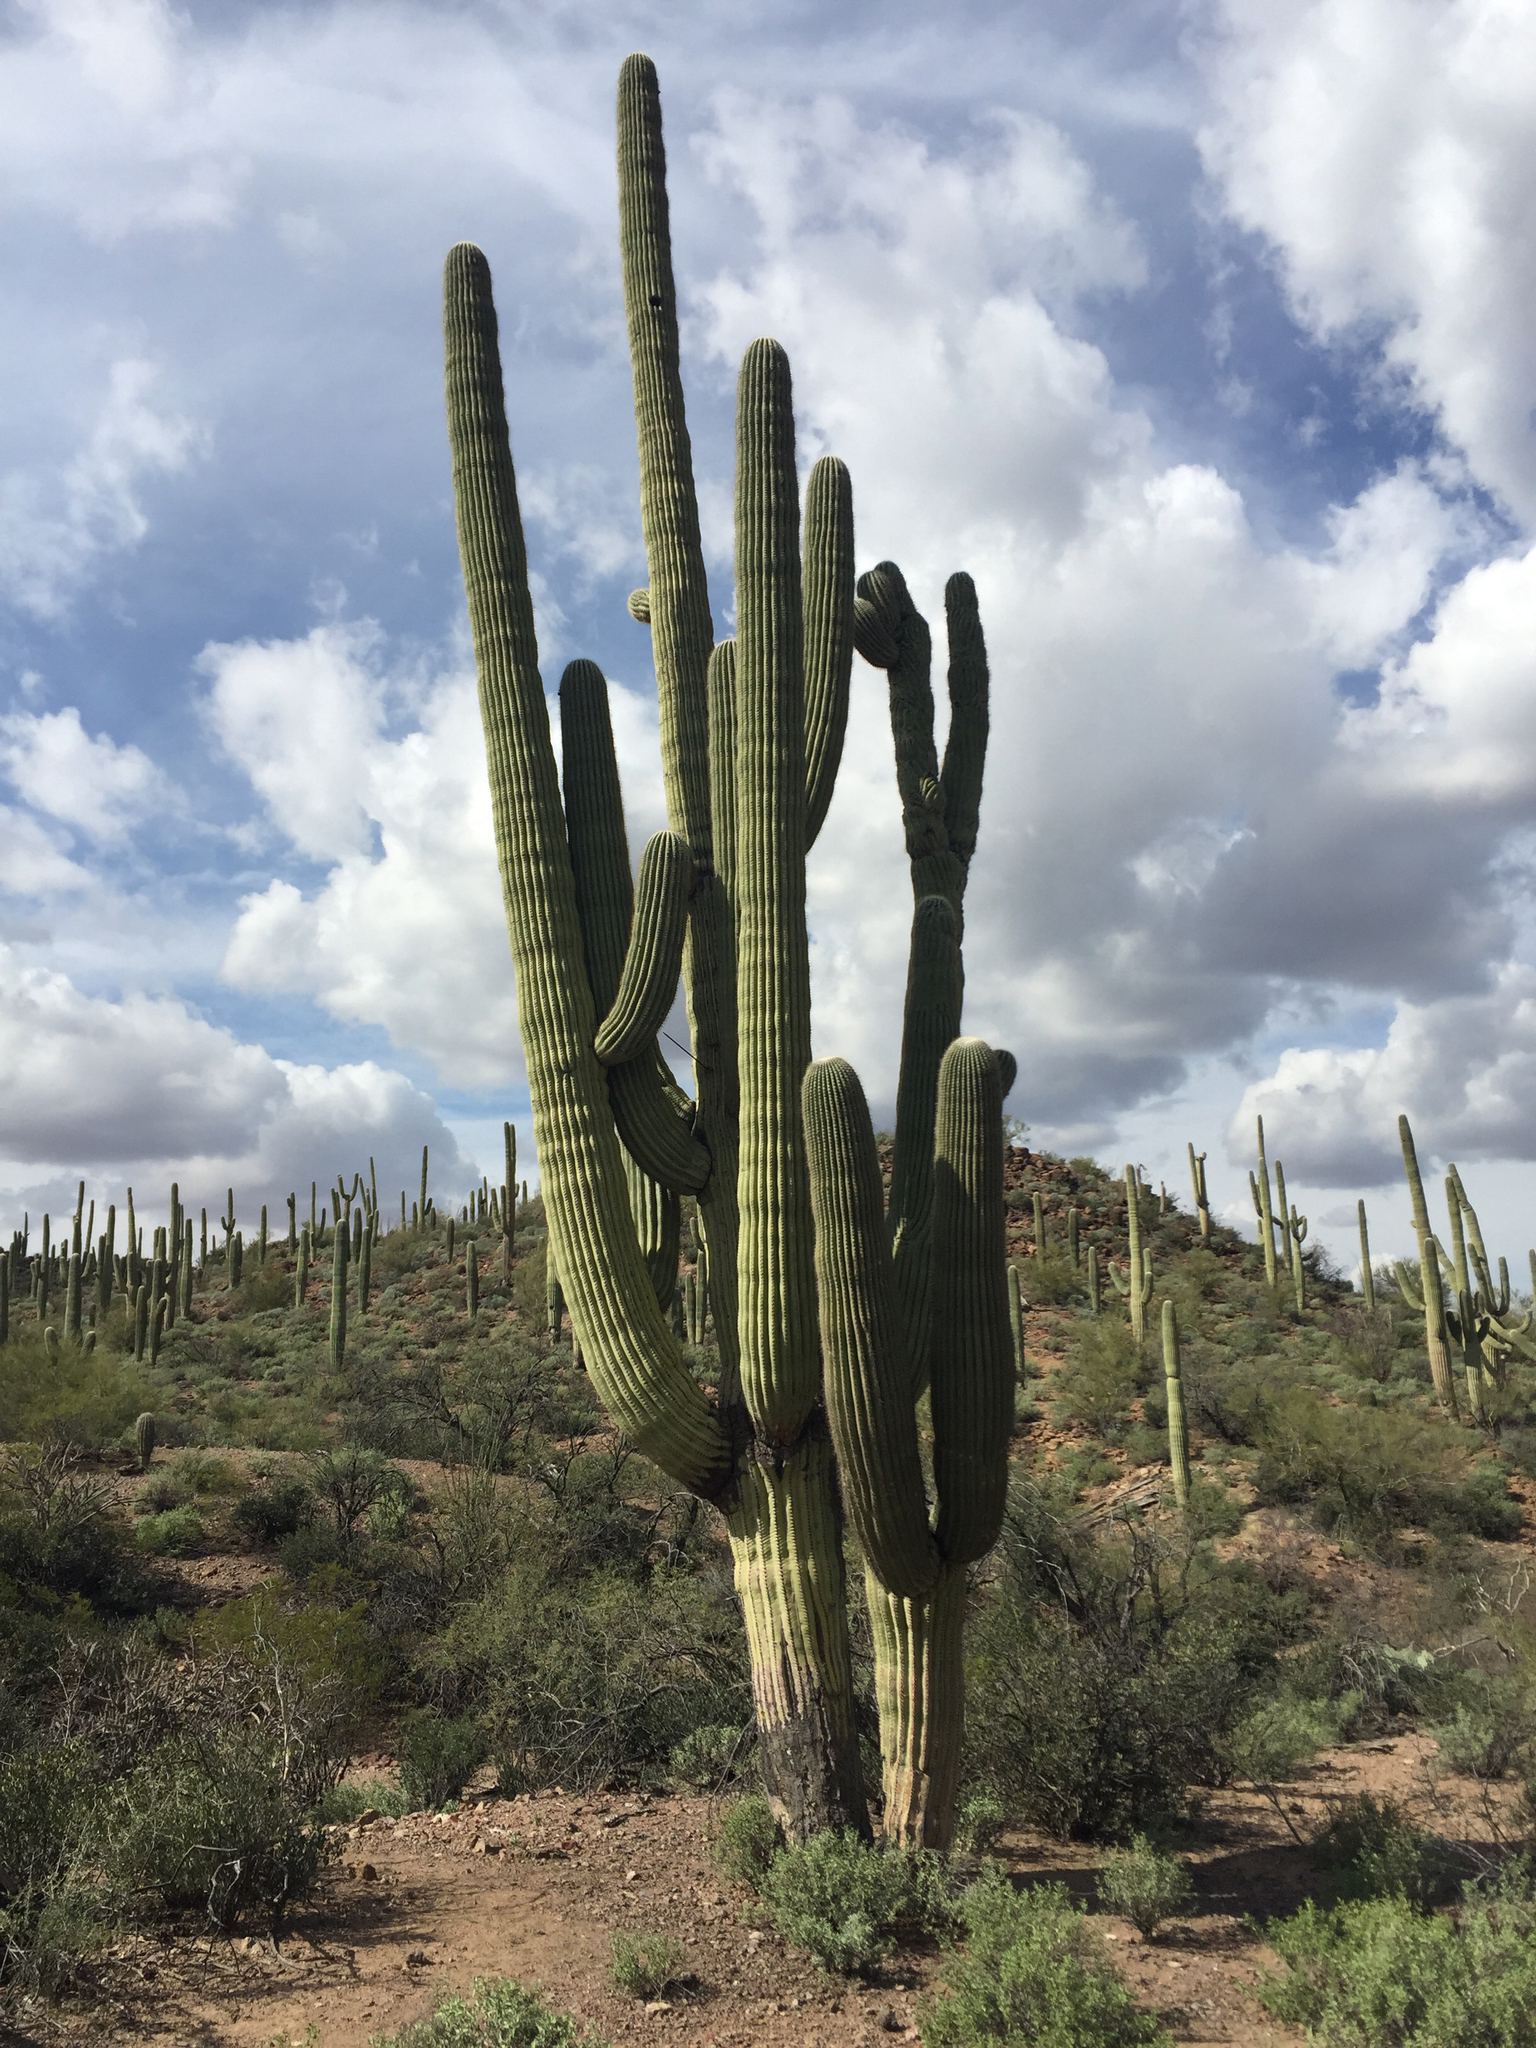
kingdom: Plantae
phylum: Tracheophyta
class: Magnoliopsida
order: Caryophyllales
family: Cactaceae
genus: Carnegiea
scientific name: Carnegiea gigantea
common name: Saguaro
